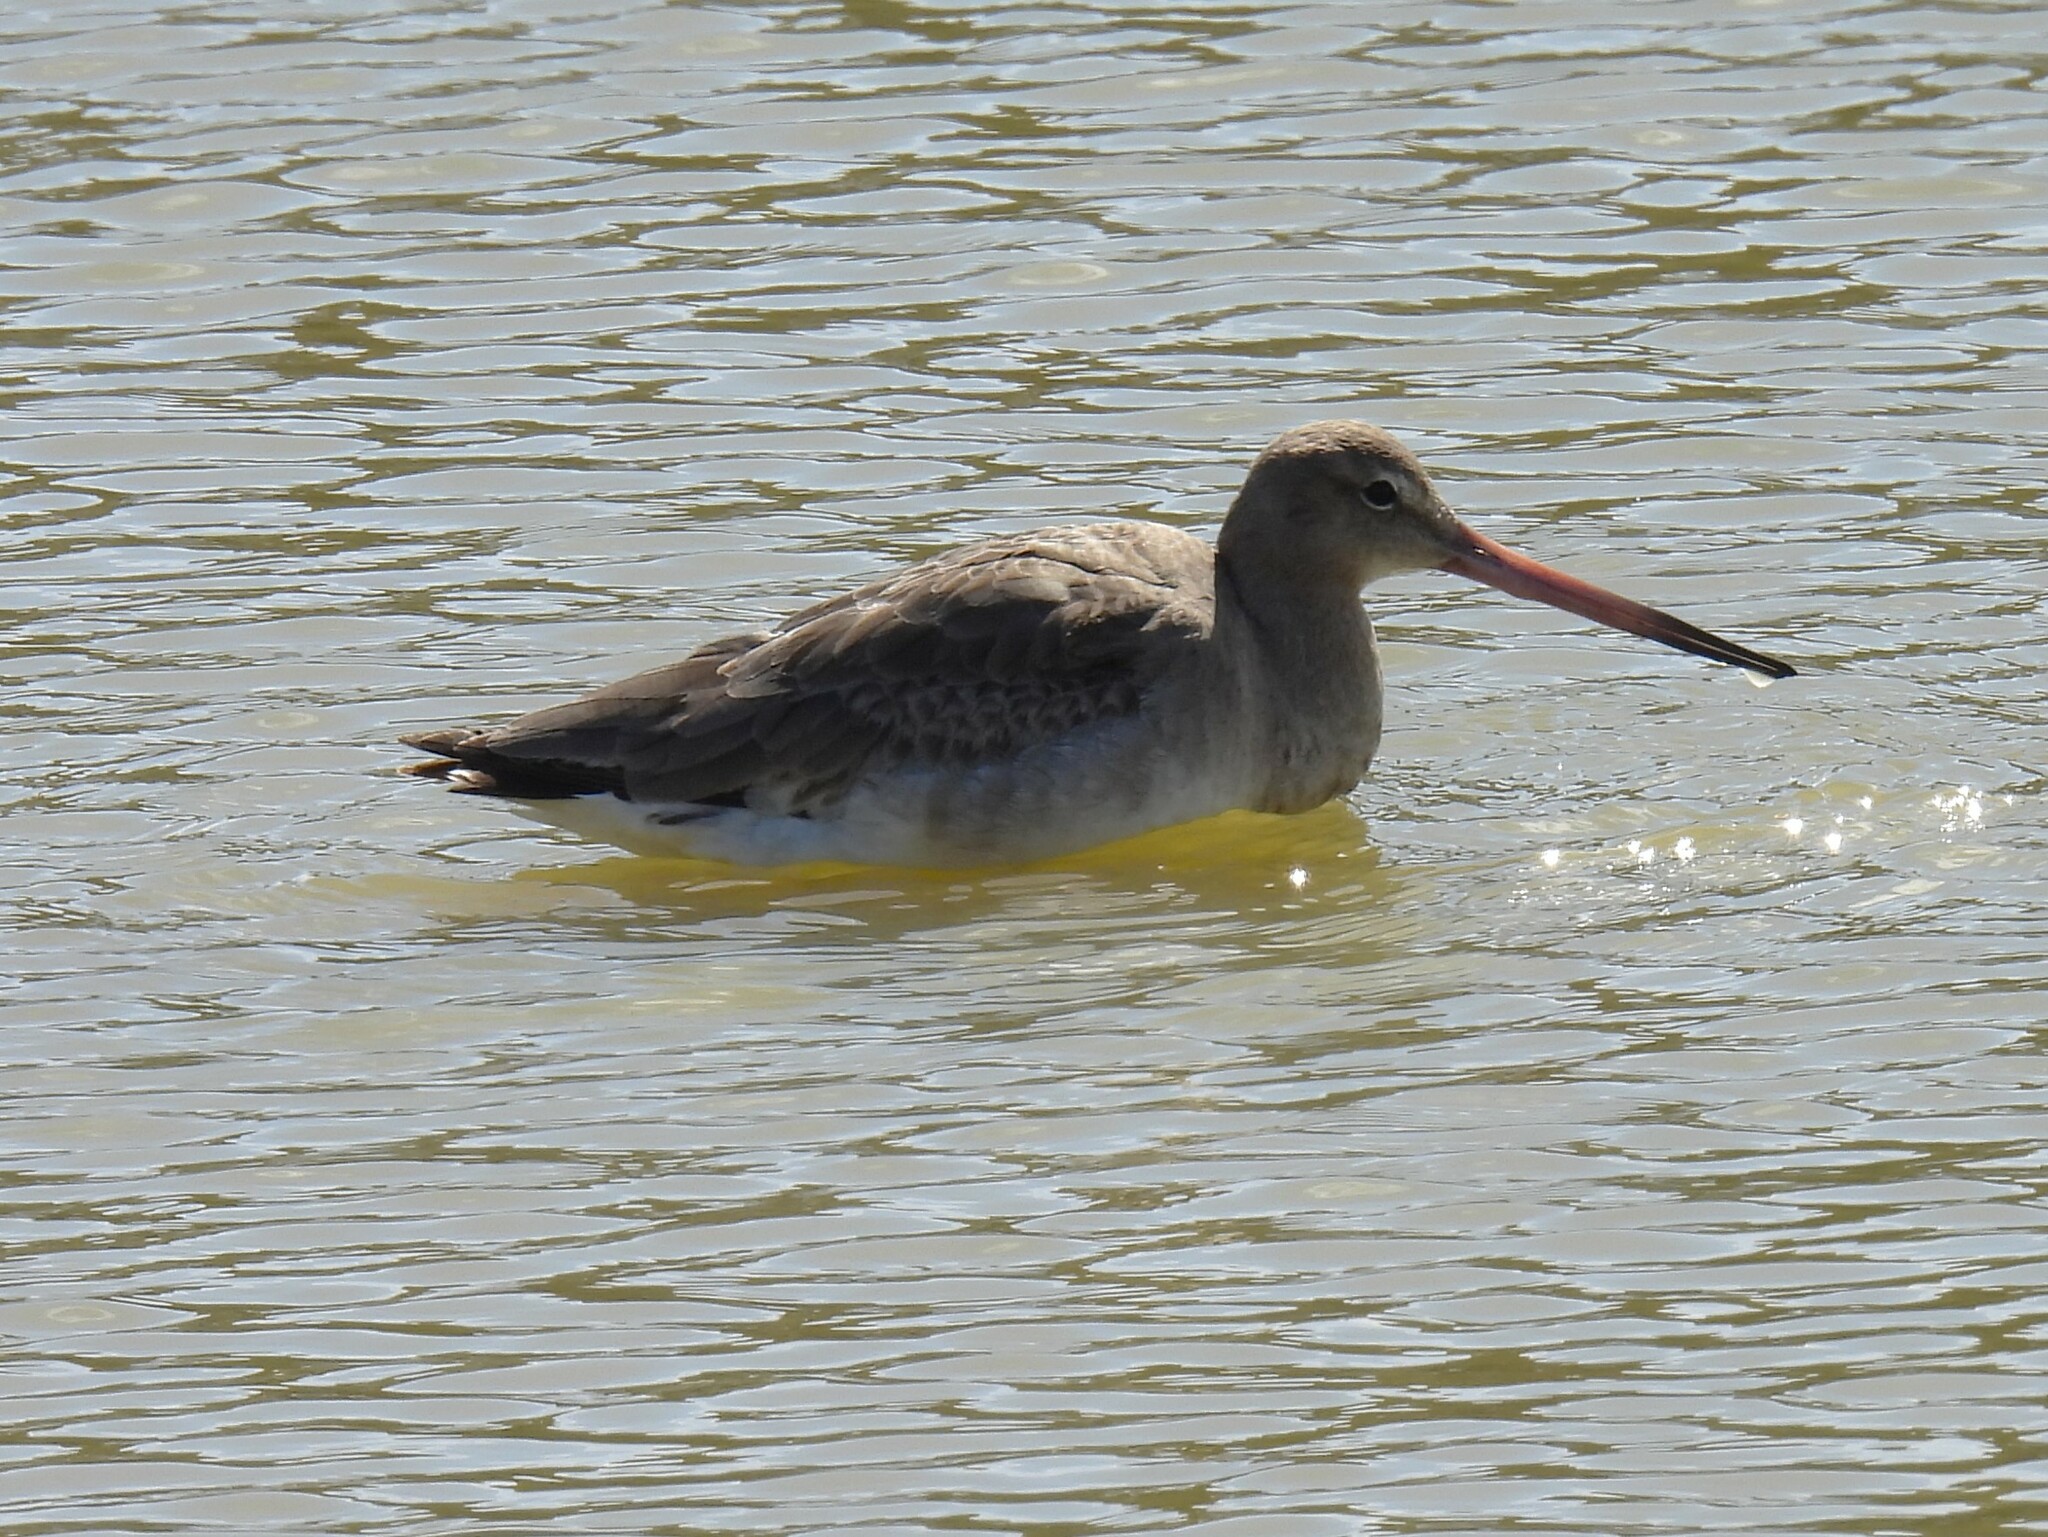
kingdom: Animalia
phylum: Chordata
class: Aves
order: Charadriiformes
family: Scolopacidae
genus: Limosa
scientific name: Limosa limosa
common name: Black-tailed godwit
